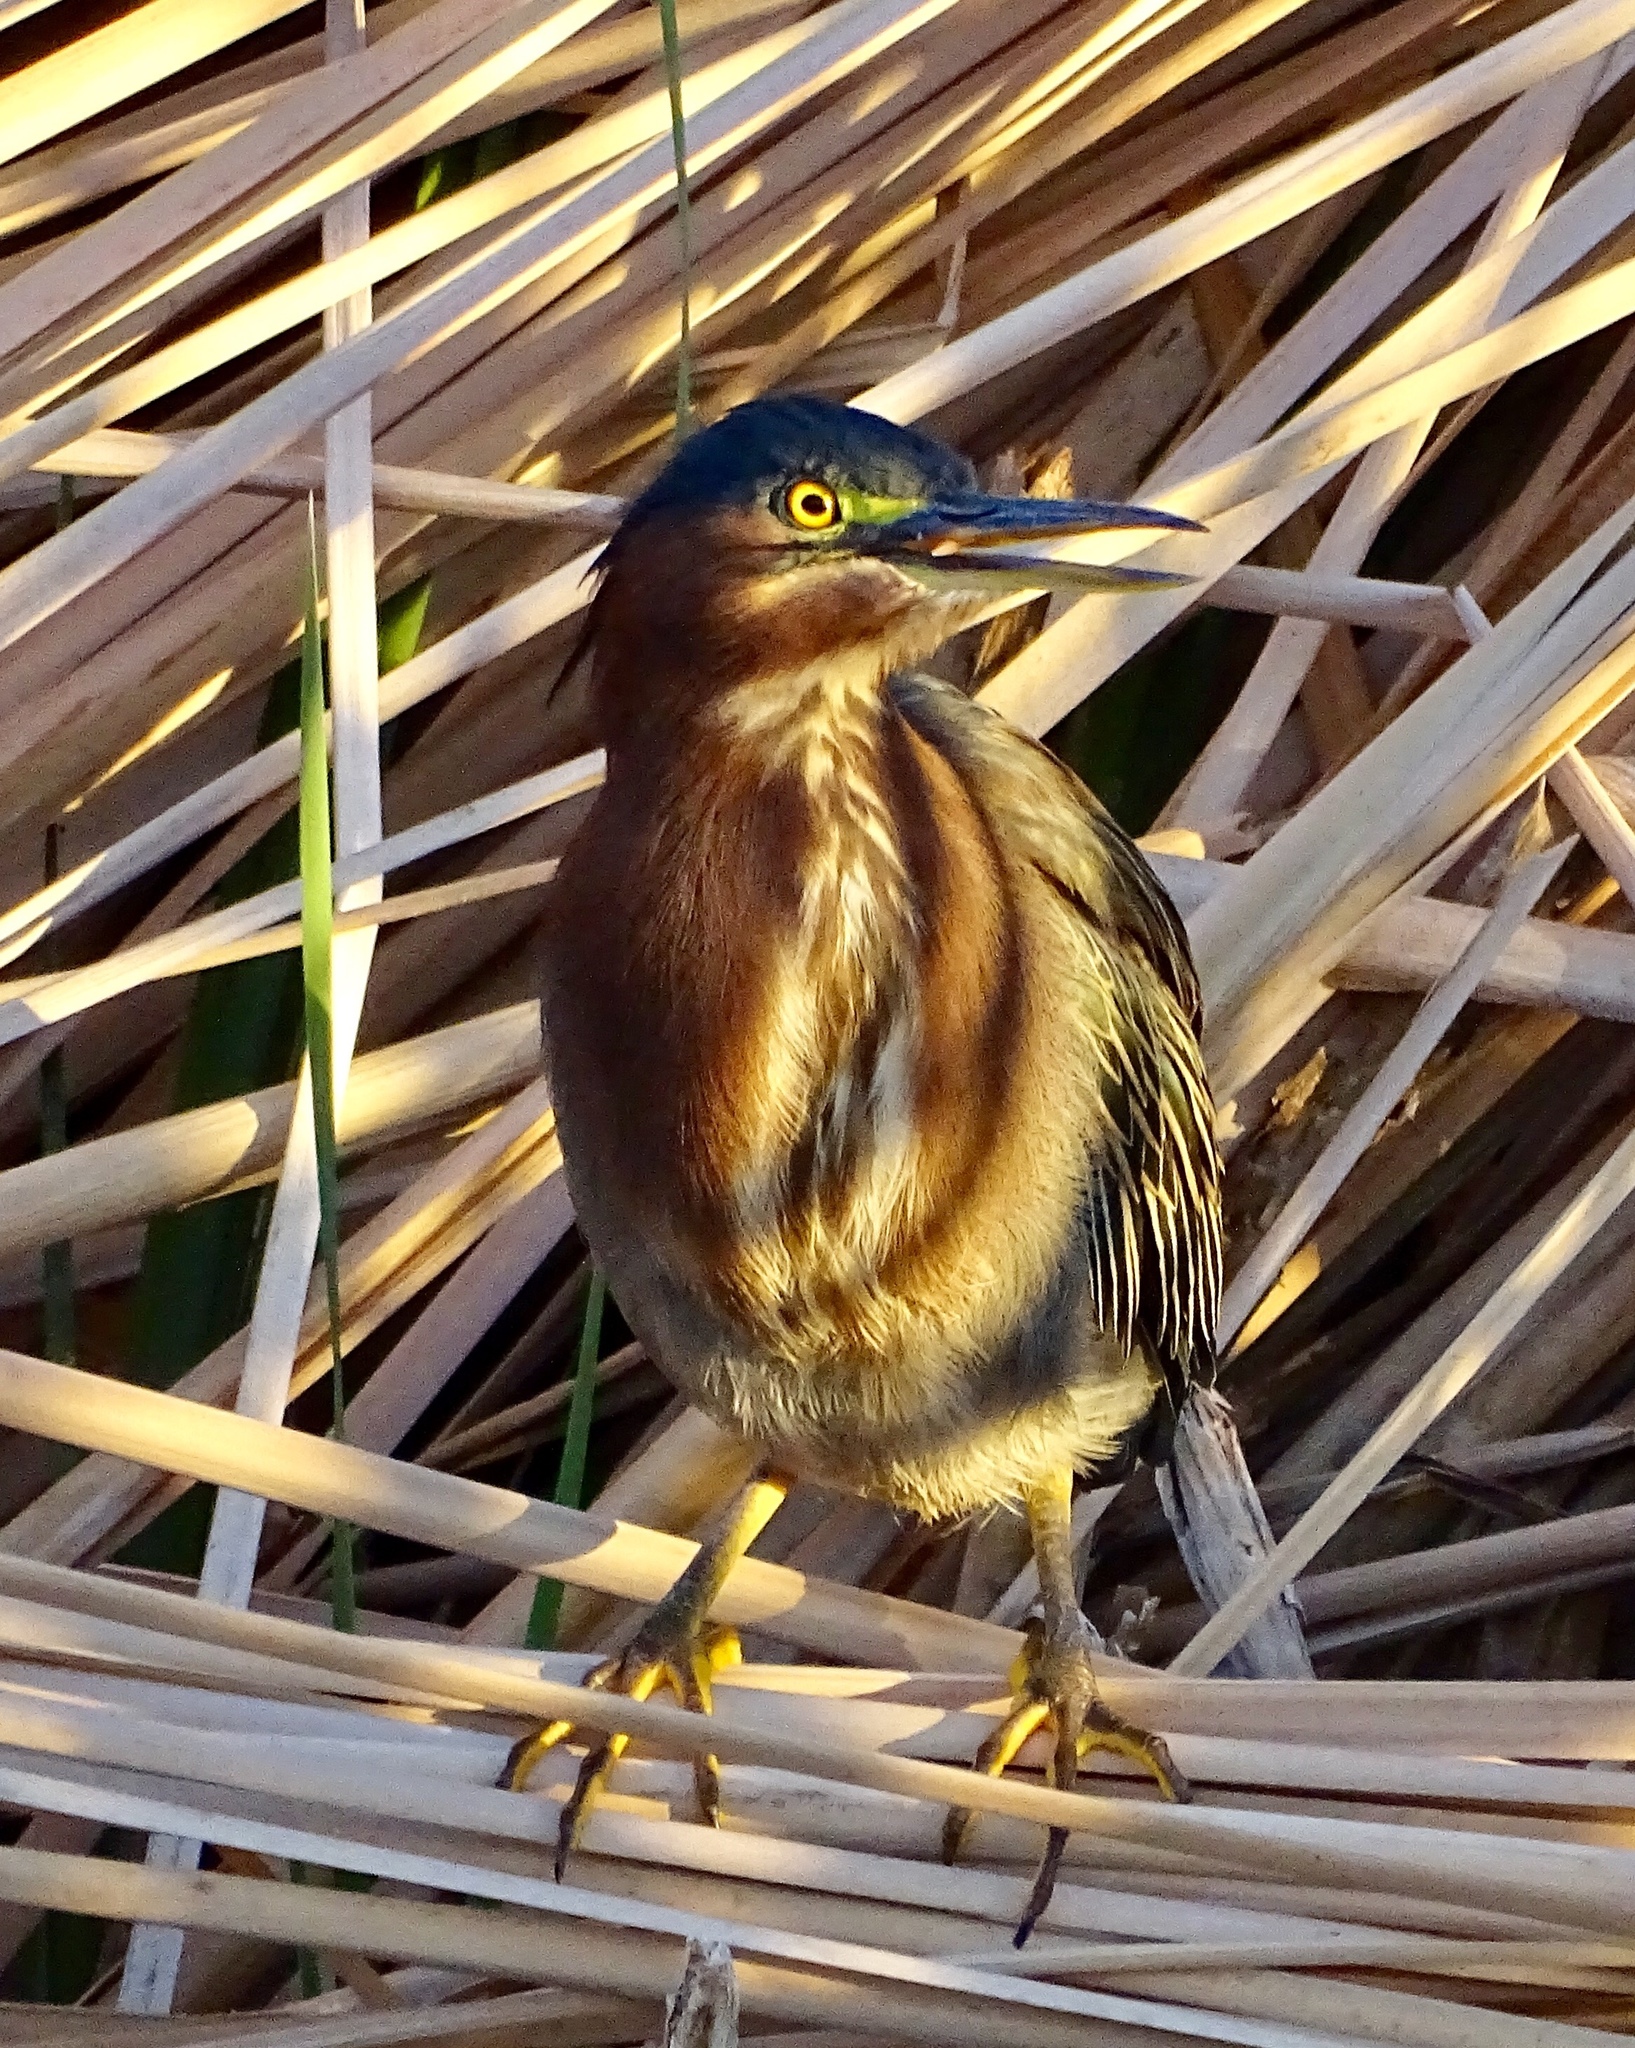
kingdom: Animalia
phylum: Chordata
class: Aves
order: Pelecaniformes
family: Ardeidae
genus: Butorides
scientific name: Butorides virescens
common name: Green heron
